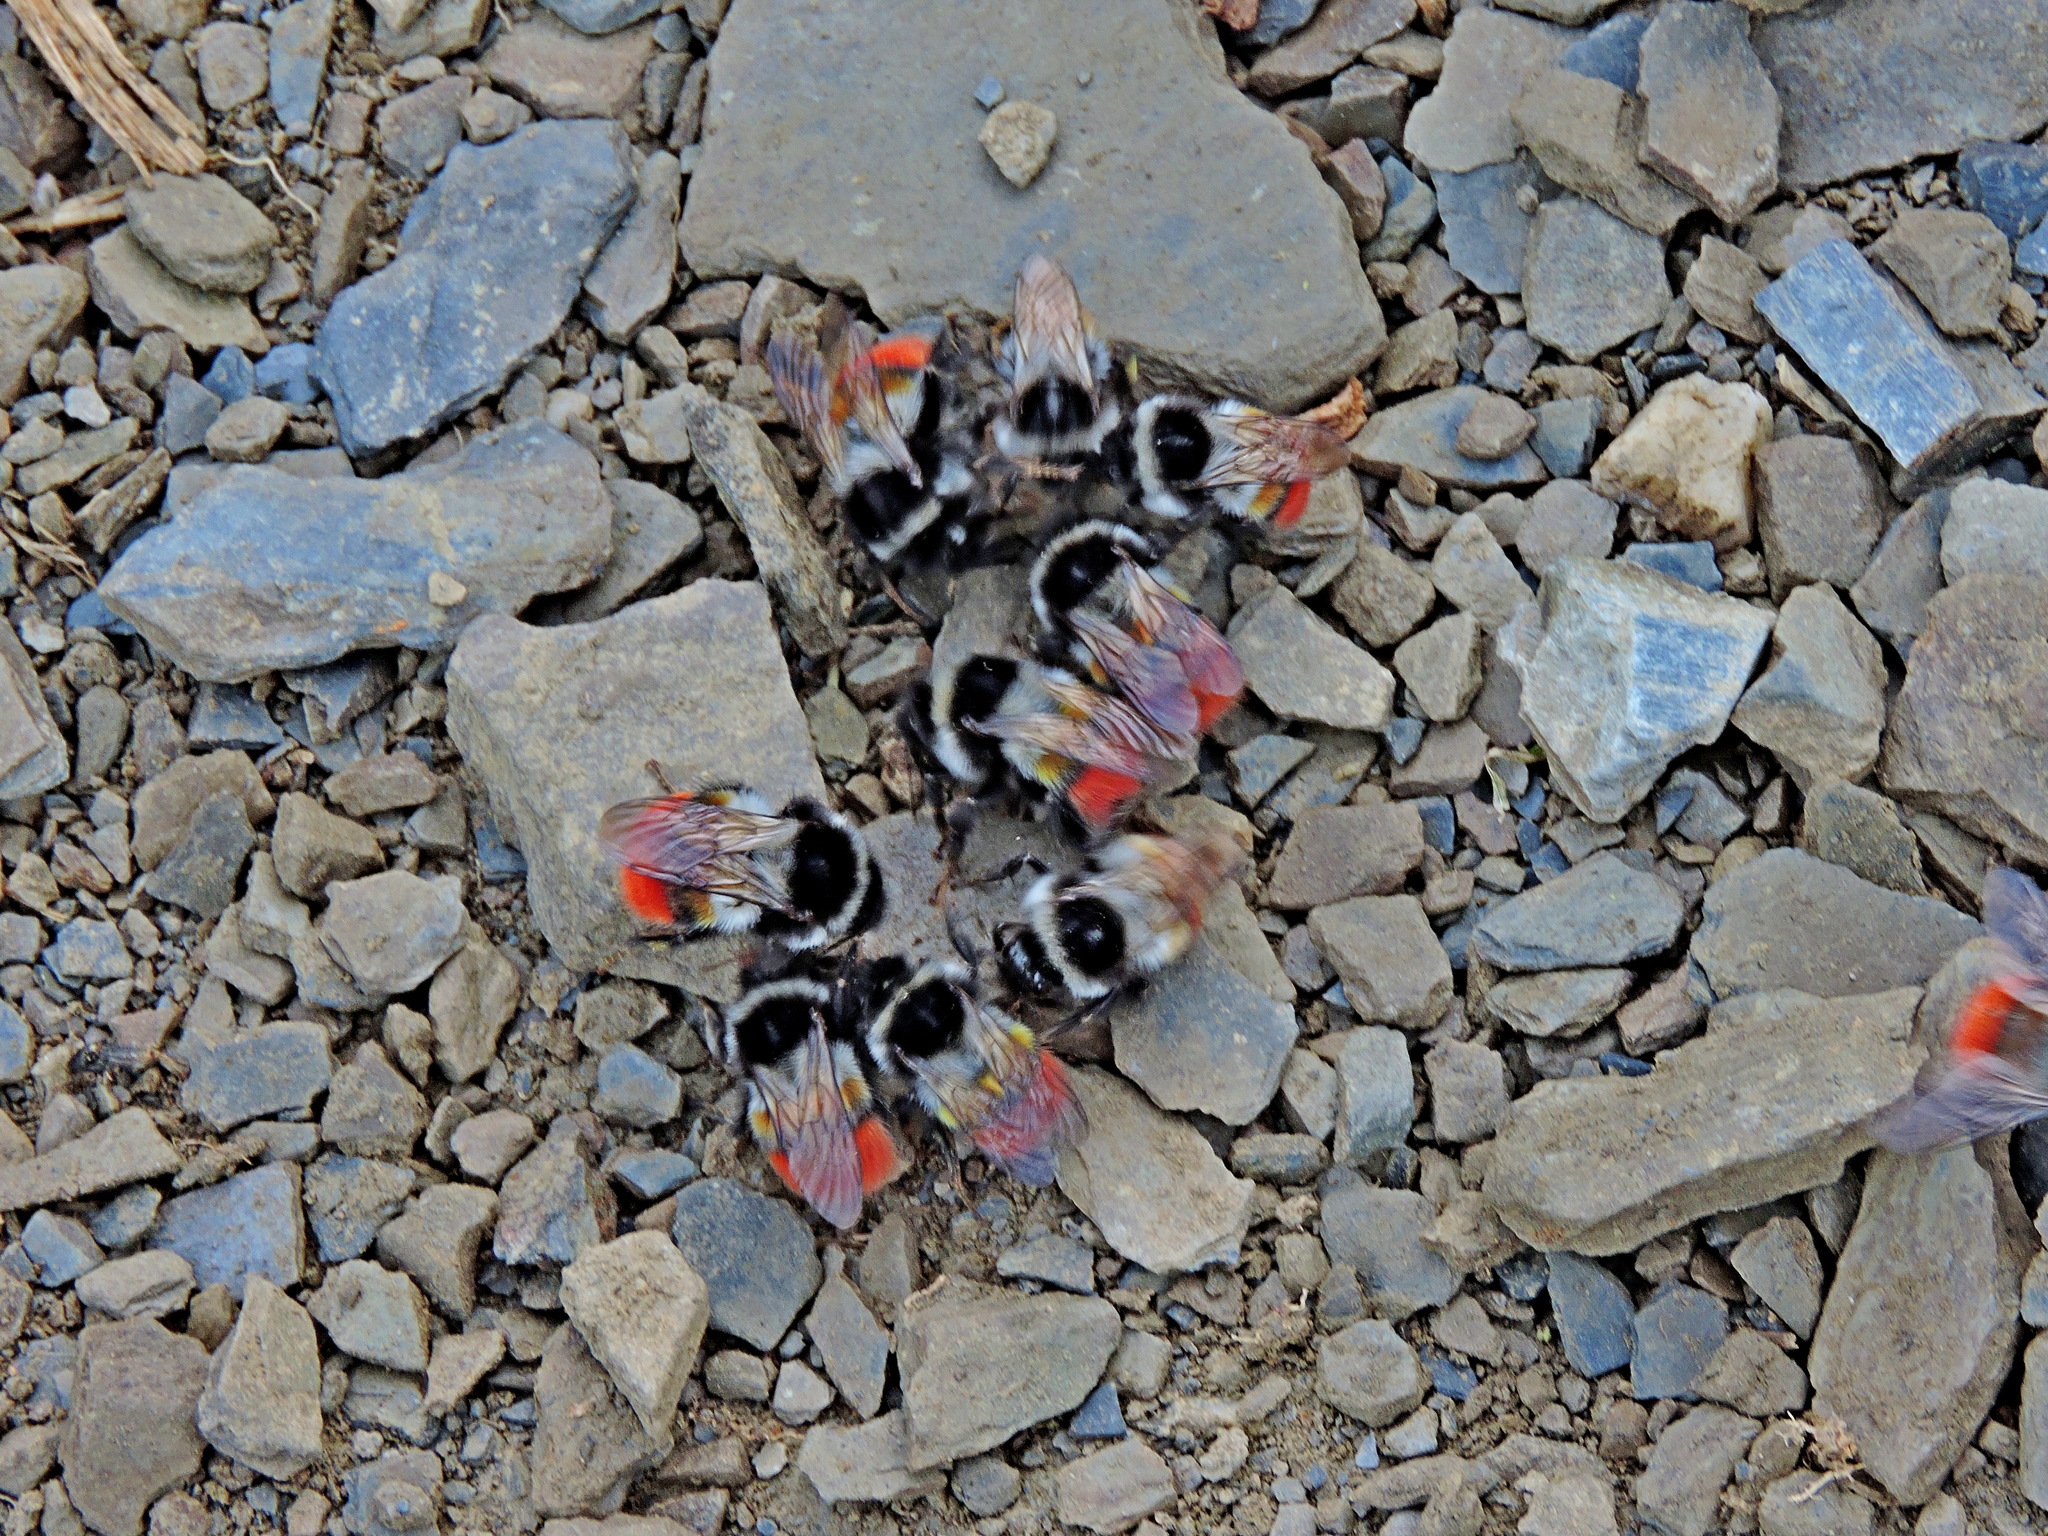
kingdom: Animalia
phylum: Arthropoda
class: Insecta
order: Hymenoptera
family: Apidae
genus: Bombus
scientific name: Bombus formosellus
